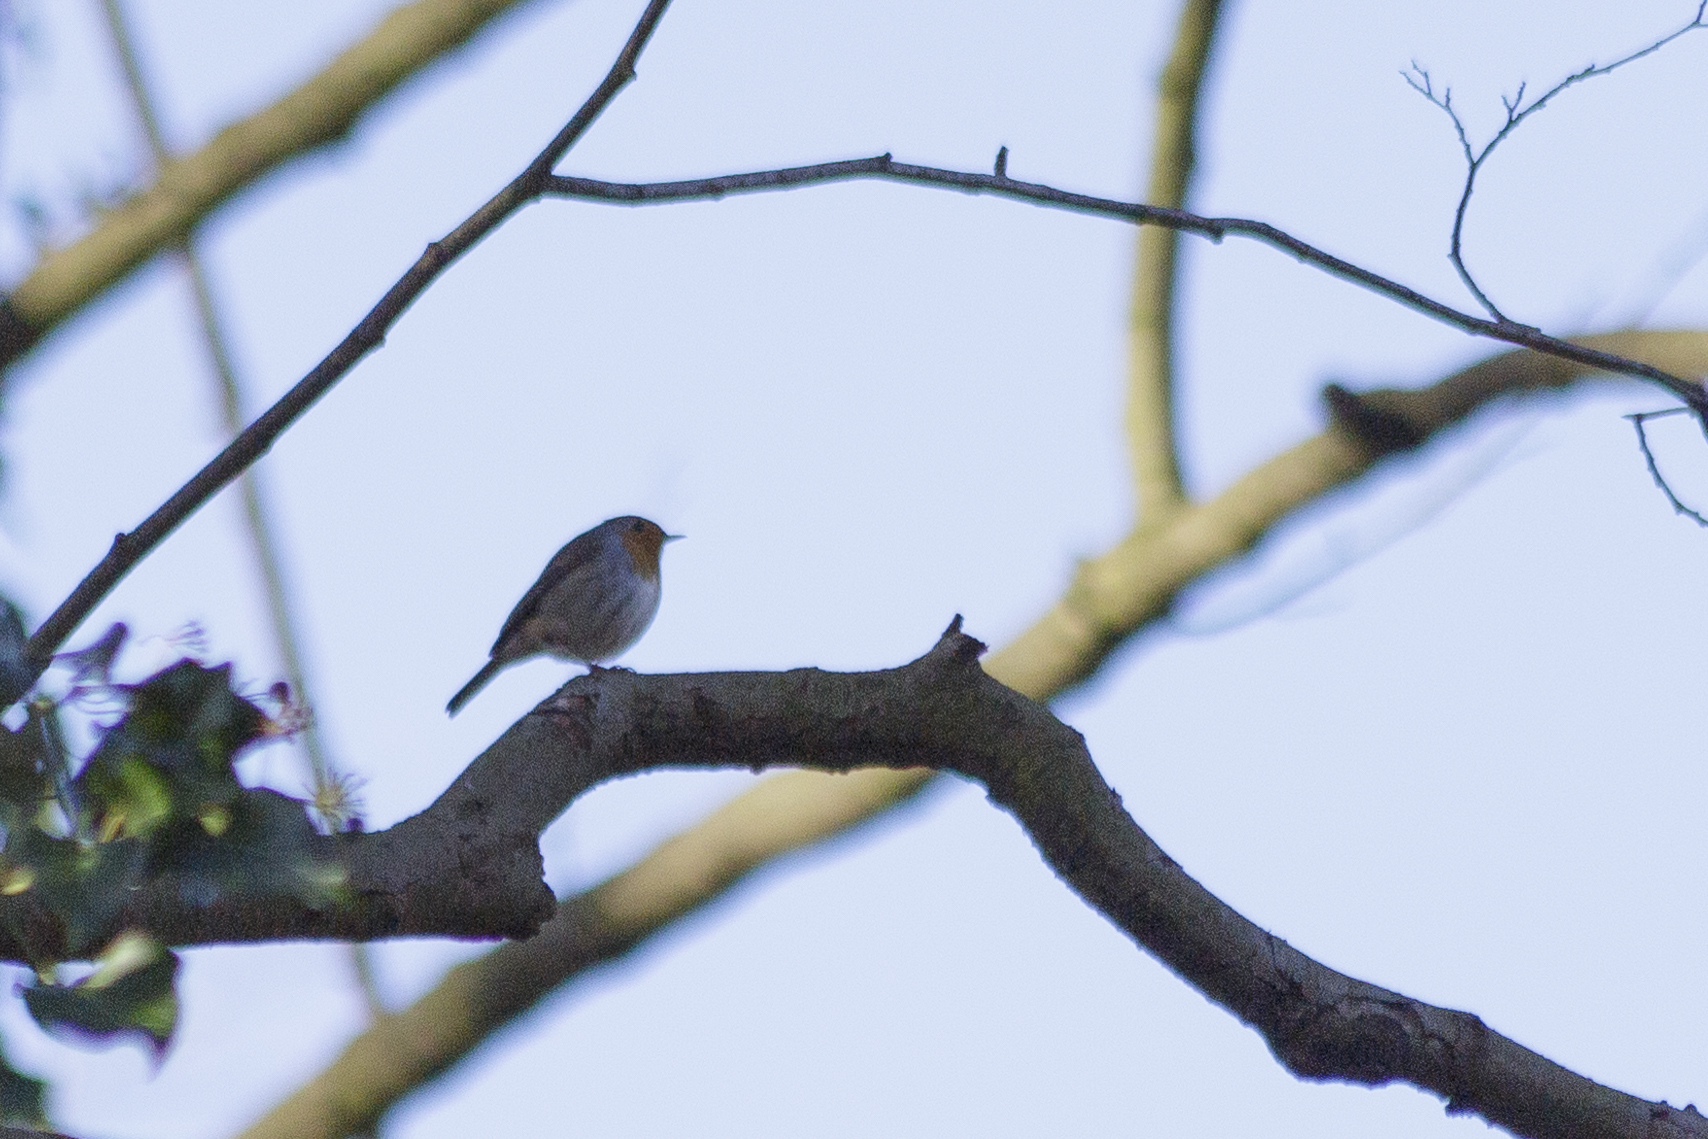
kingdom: Animalia
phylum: Chordata
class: Aves
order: Passeriformes
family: Muscicapidae
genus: Erithacus
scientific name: Erithacus rubecula
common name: European robin
